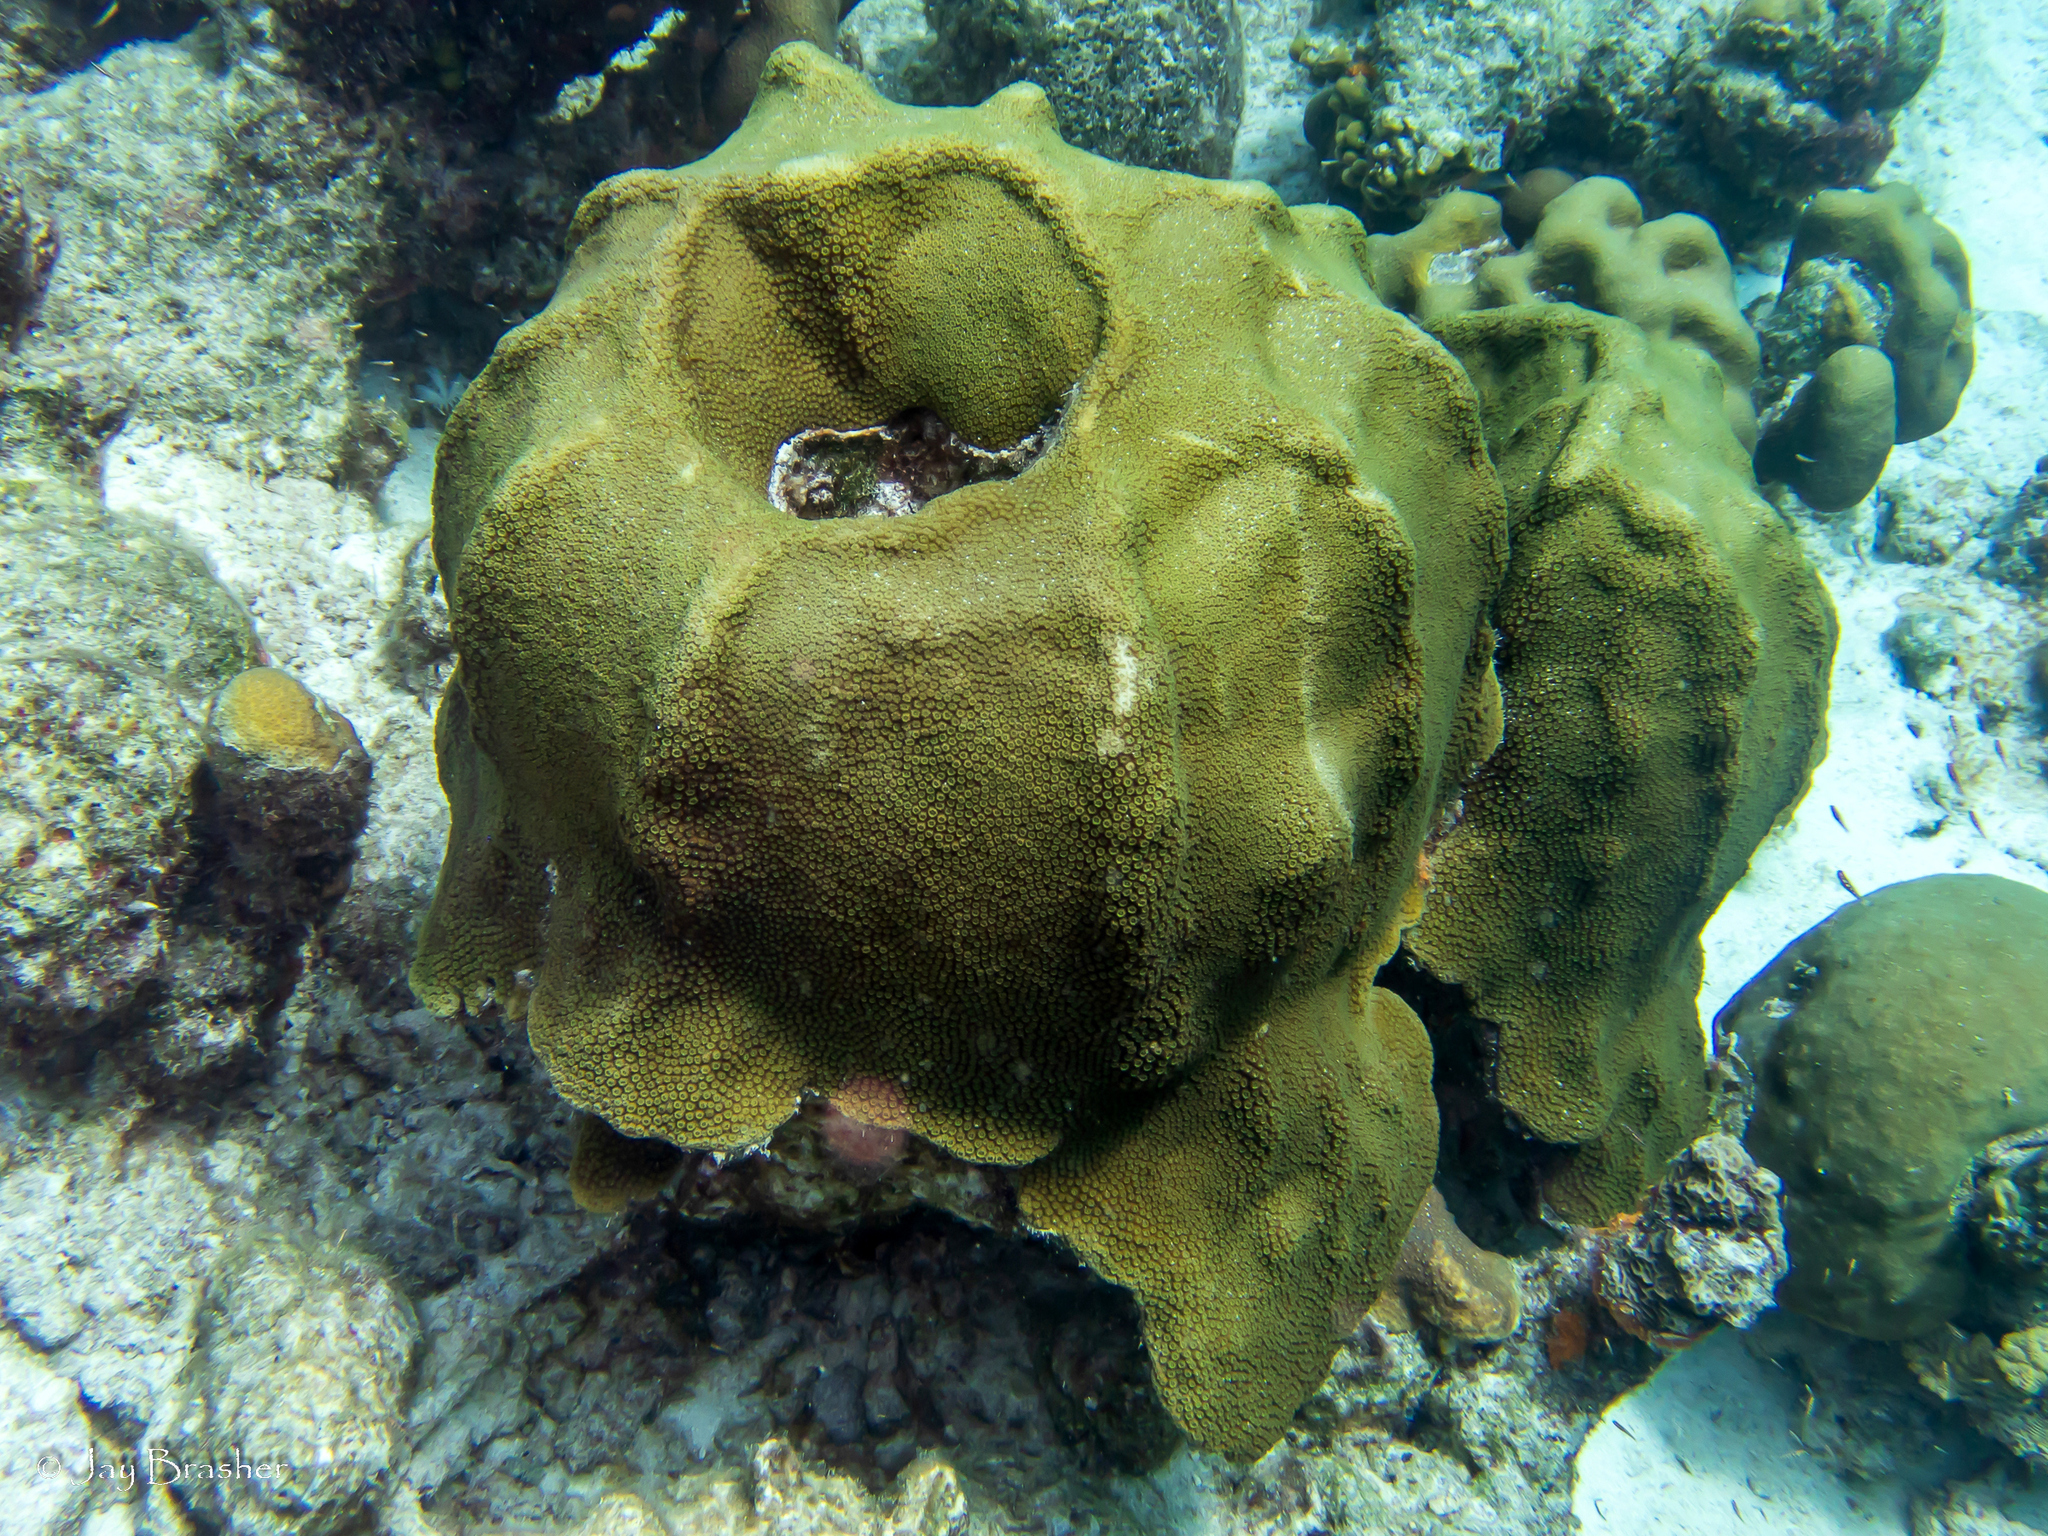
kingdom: Animalia
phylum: Cnidaria
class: Anthozoa
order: Scleractinia
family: Merulinidae
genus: Orbicella
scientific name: Orbicella faveolata
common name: Mountainous star coral
